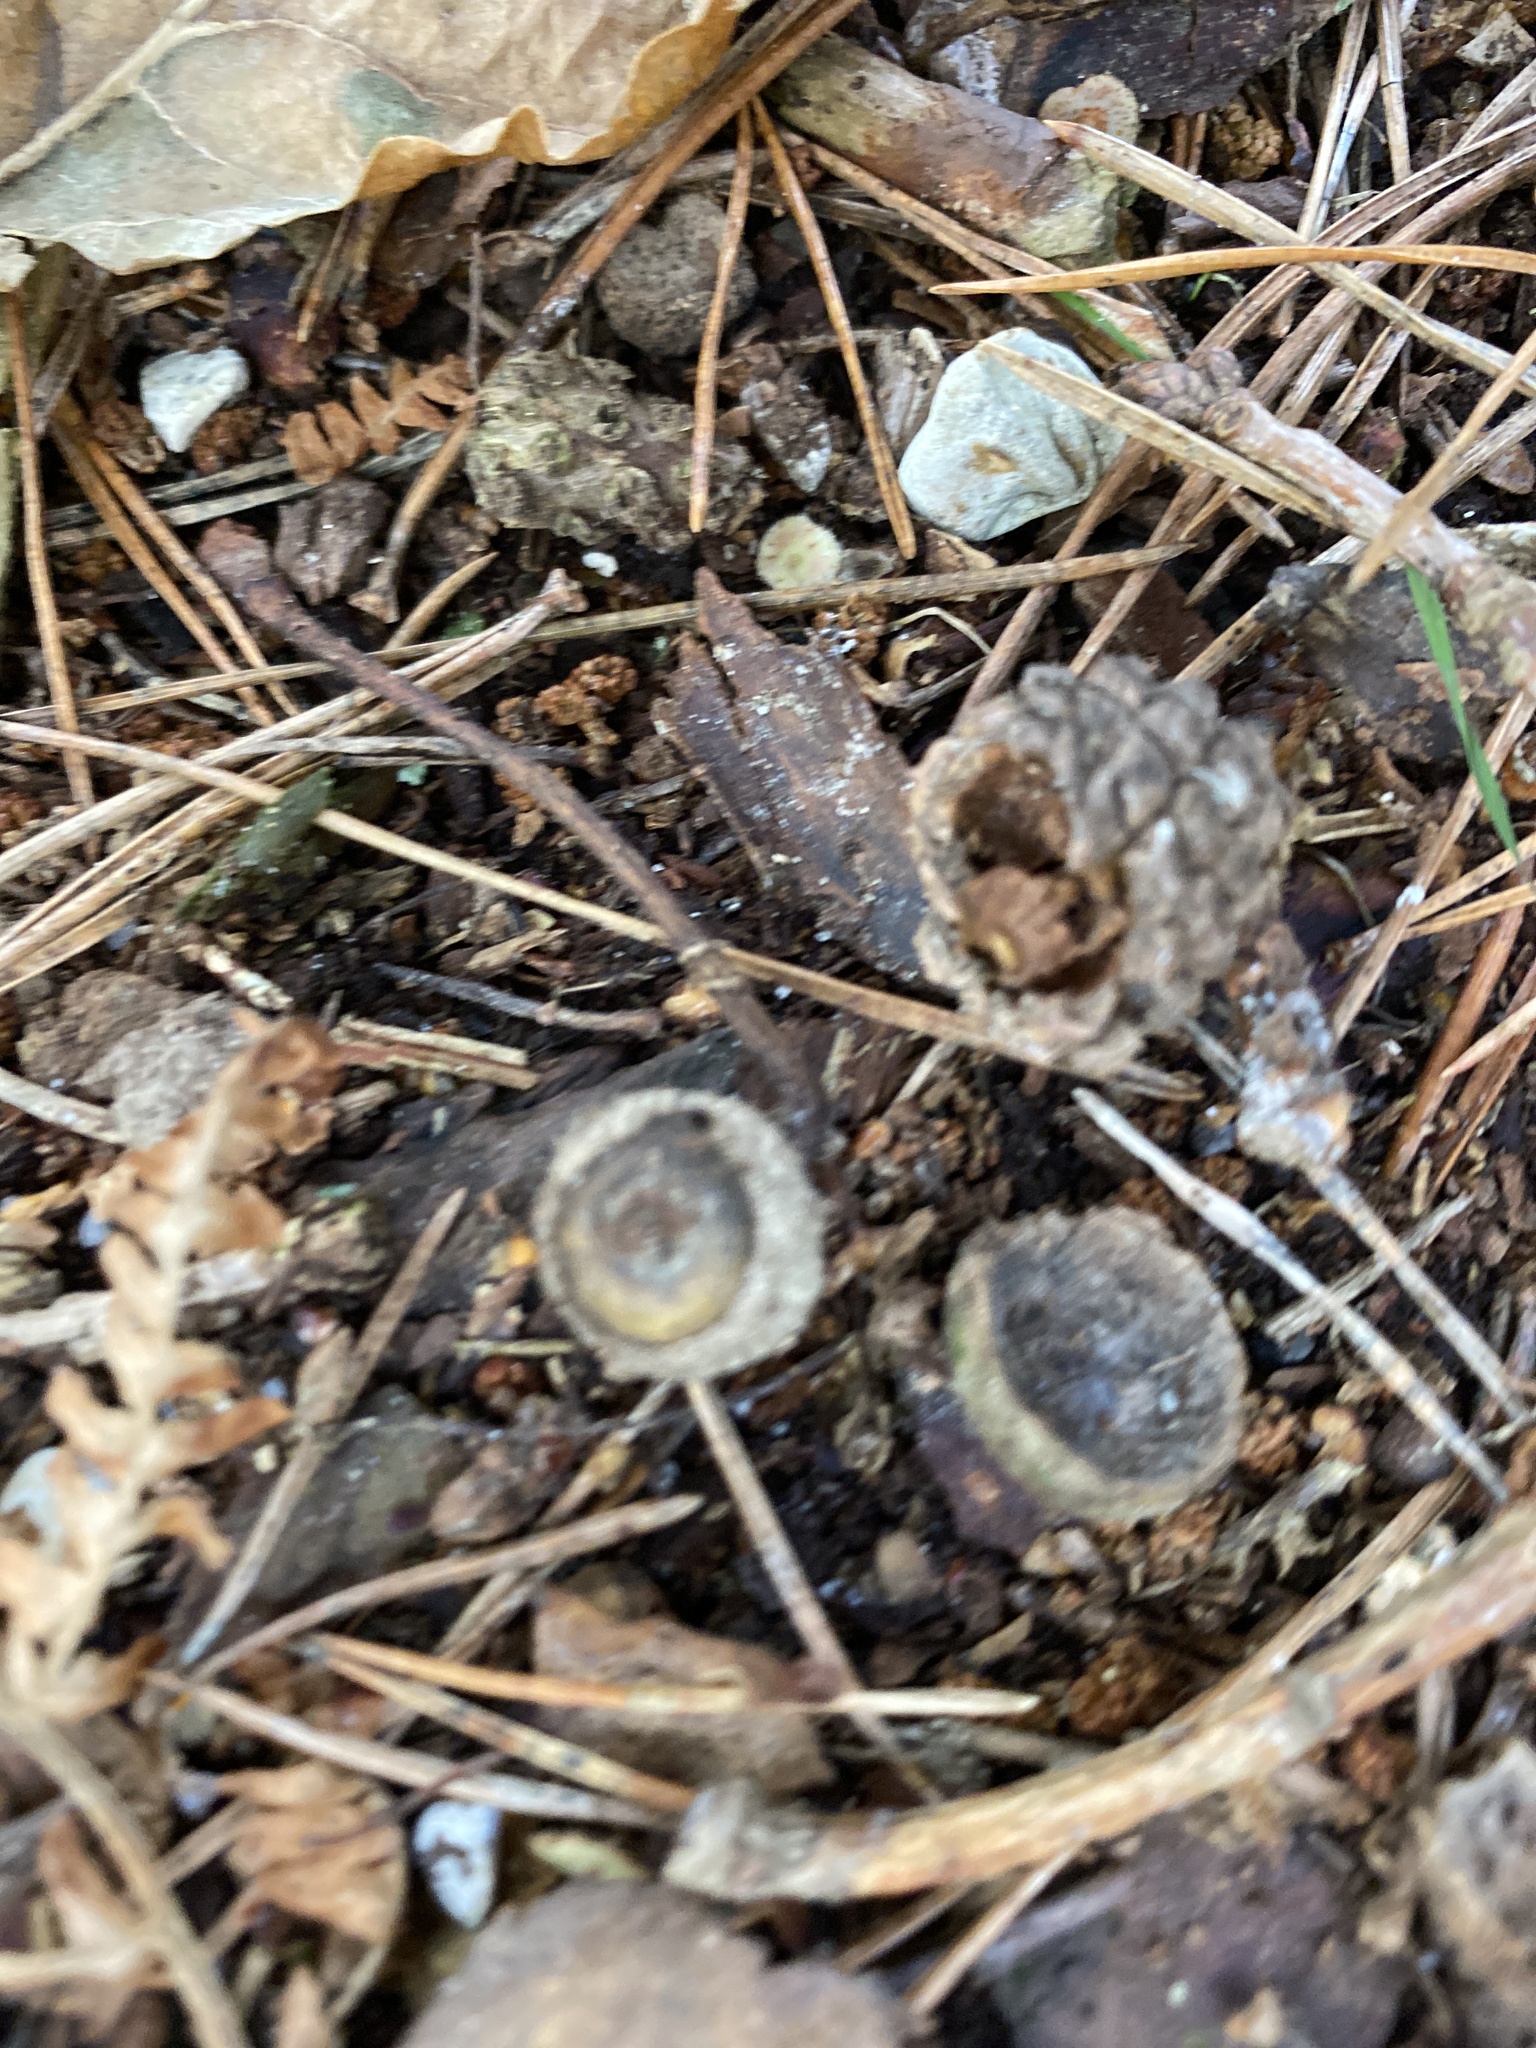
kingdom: Animalia
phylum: Arthropoda
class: Insecta
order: Hymenoptera
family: Cynipidae
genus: Neuroterus
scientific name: Neuroterus quercusbaccarum
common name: Common spangle gall
